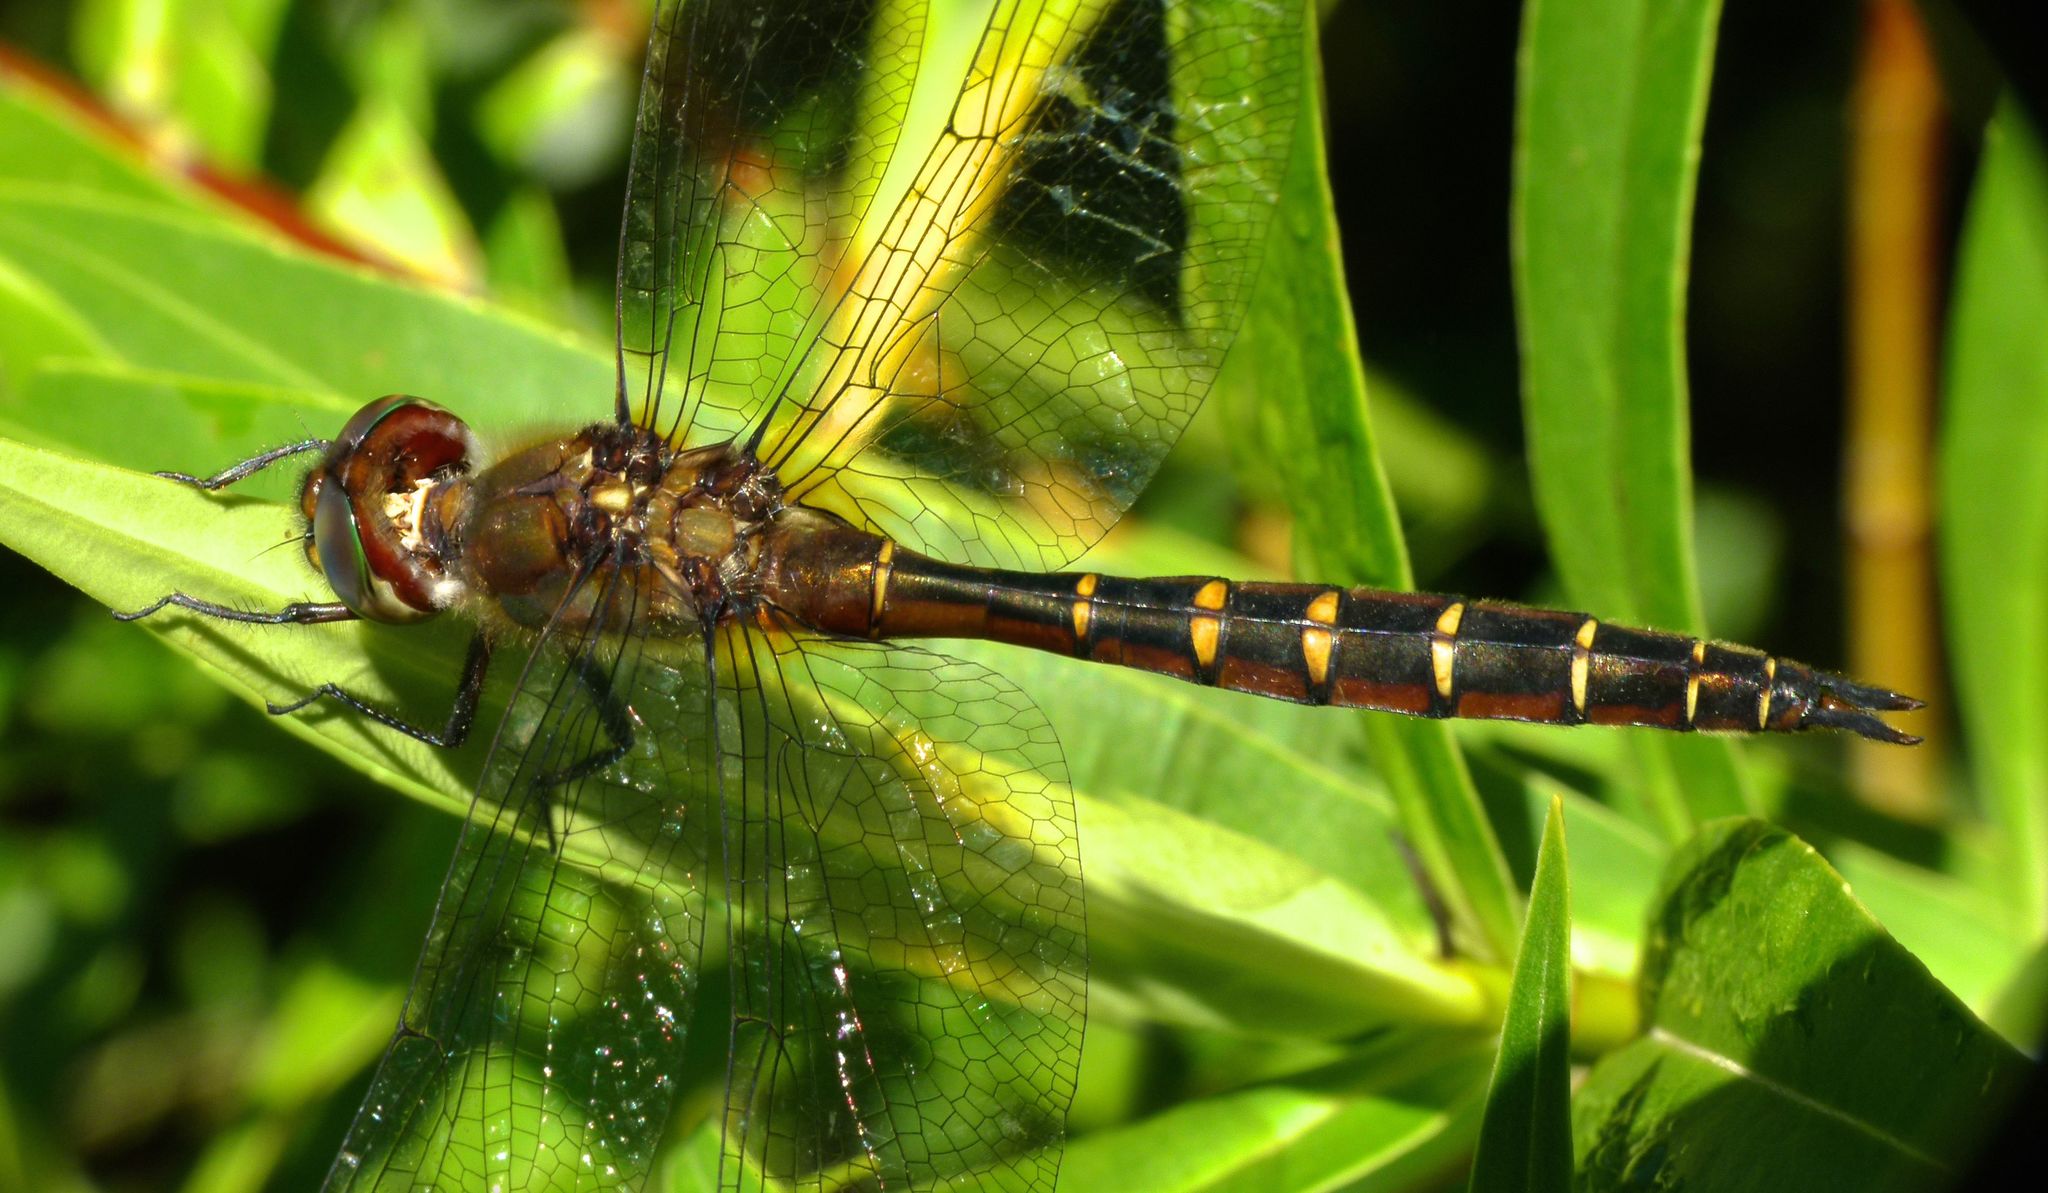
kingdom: Animalia
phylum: Arthropoda
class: Insecta
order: Odonata
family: Corduliidae
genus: Procordulia
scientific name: Procordulia smithii
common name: Ranger dragonfly
